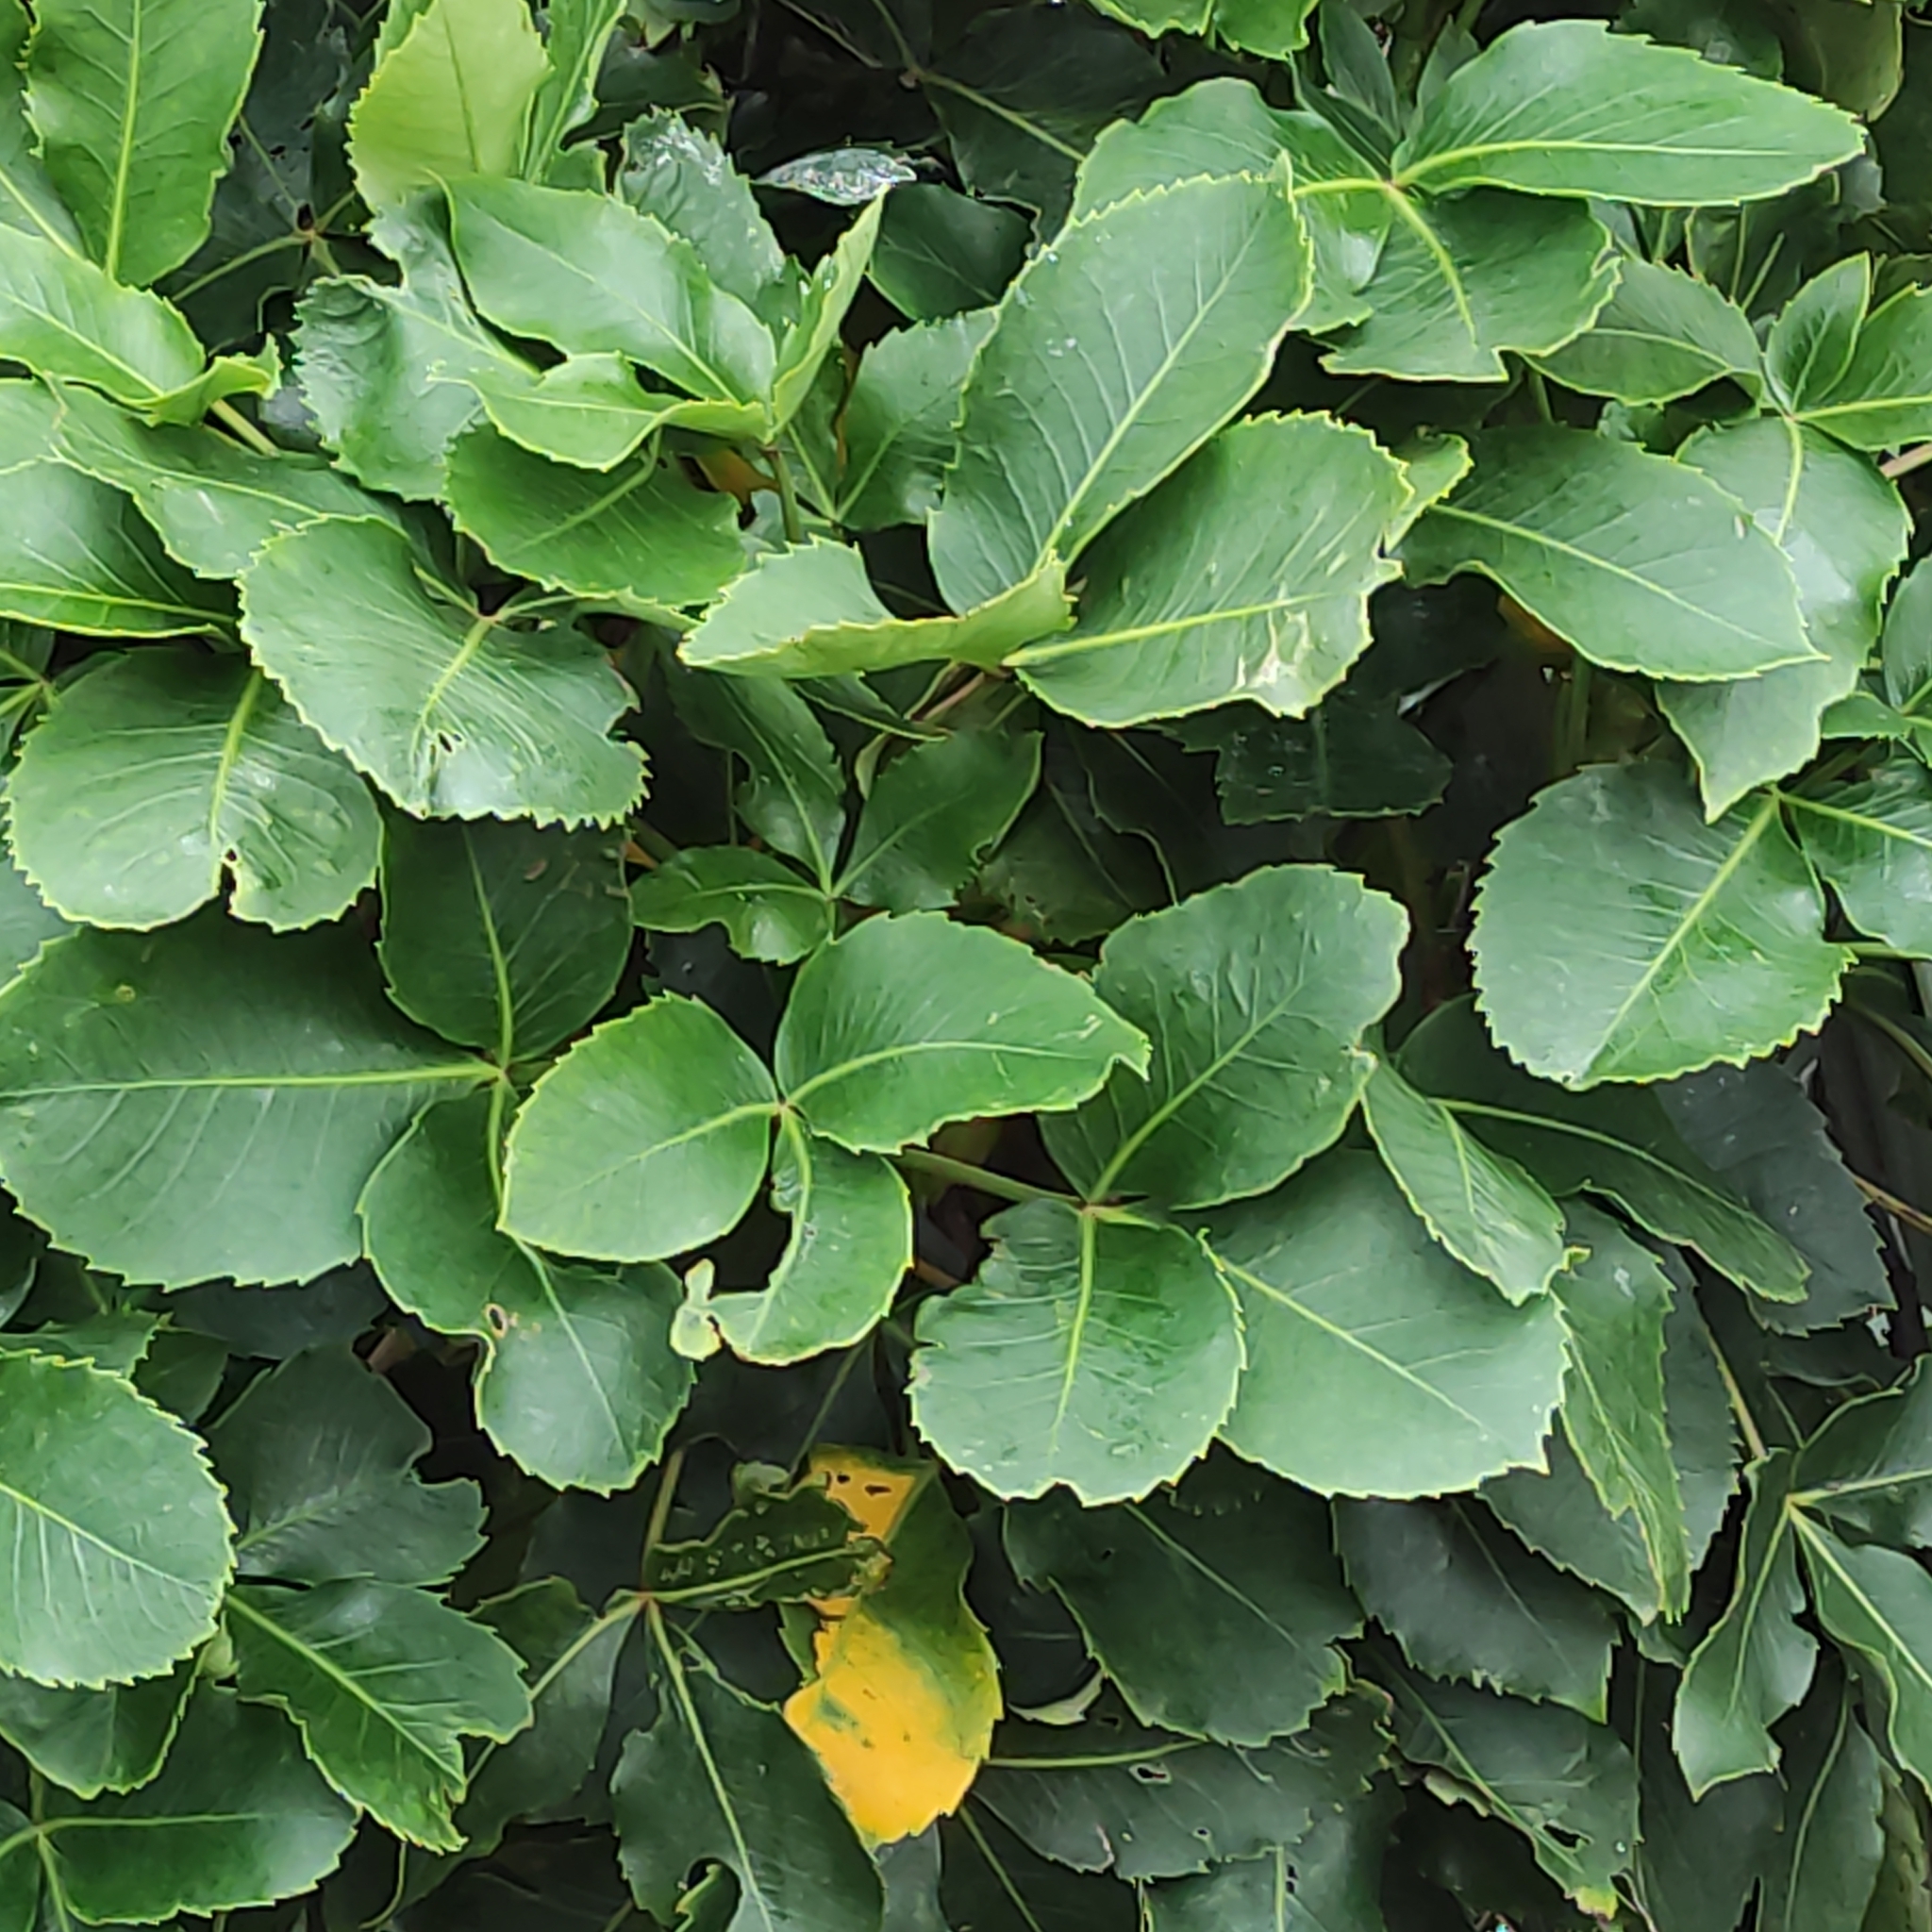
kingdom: Plantae
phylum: Tracheophyta
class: Magnoliopsida
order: Apiales
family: Araliaceae
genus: Neopanax
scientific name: Neopanax colensoi
